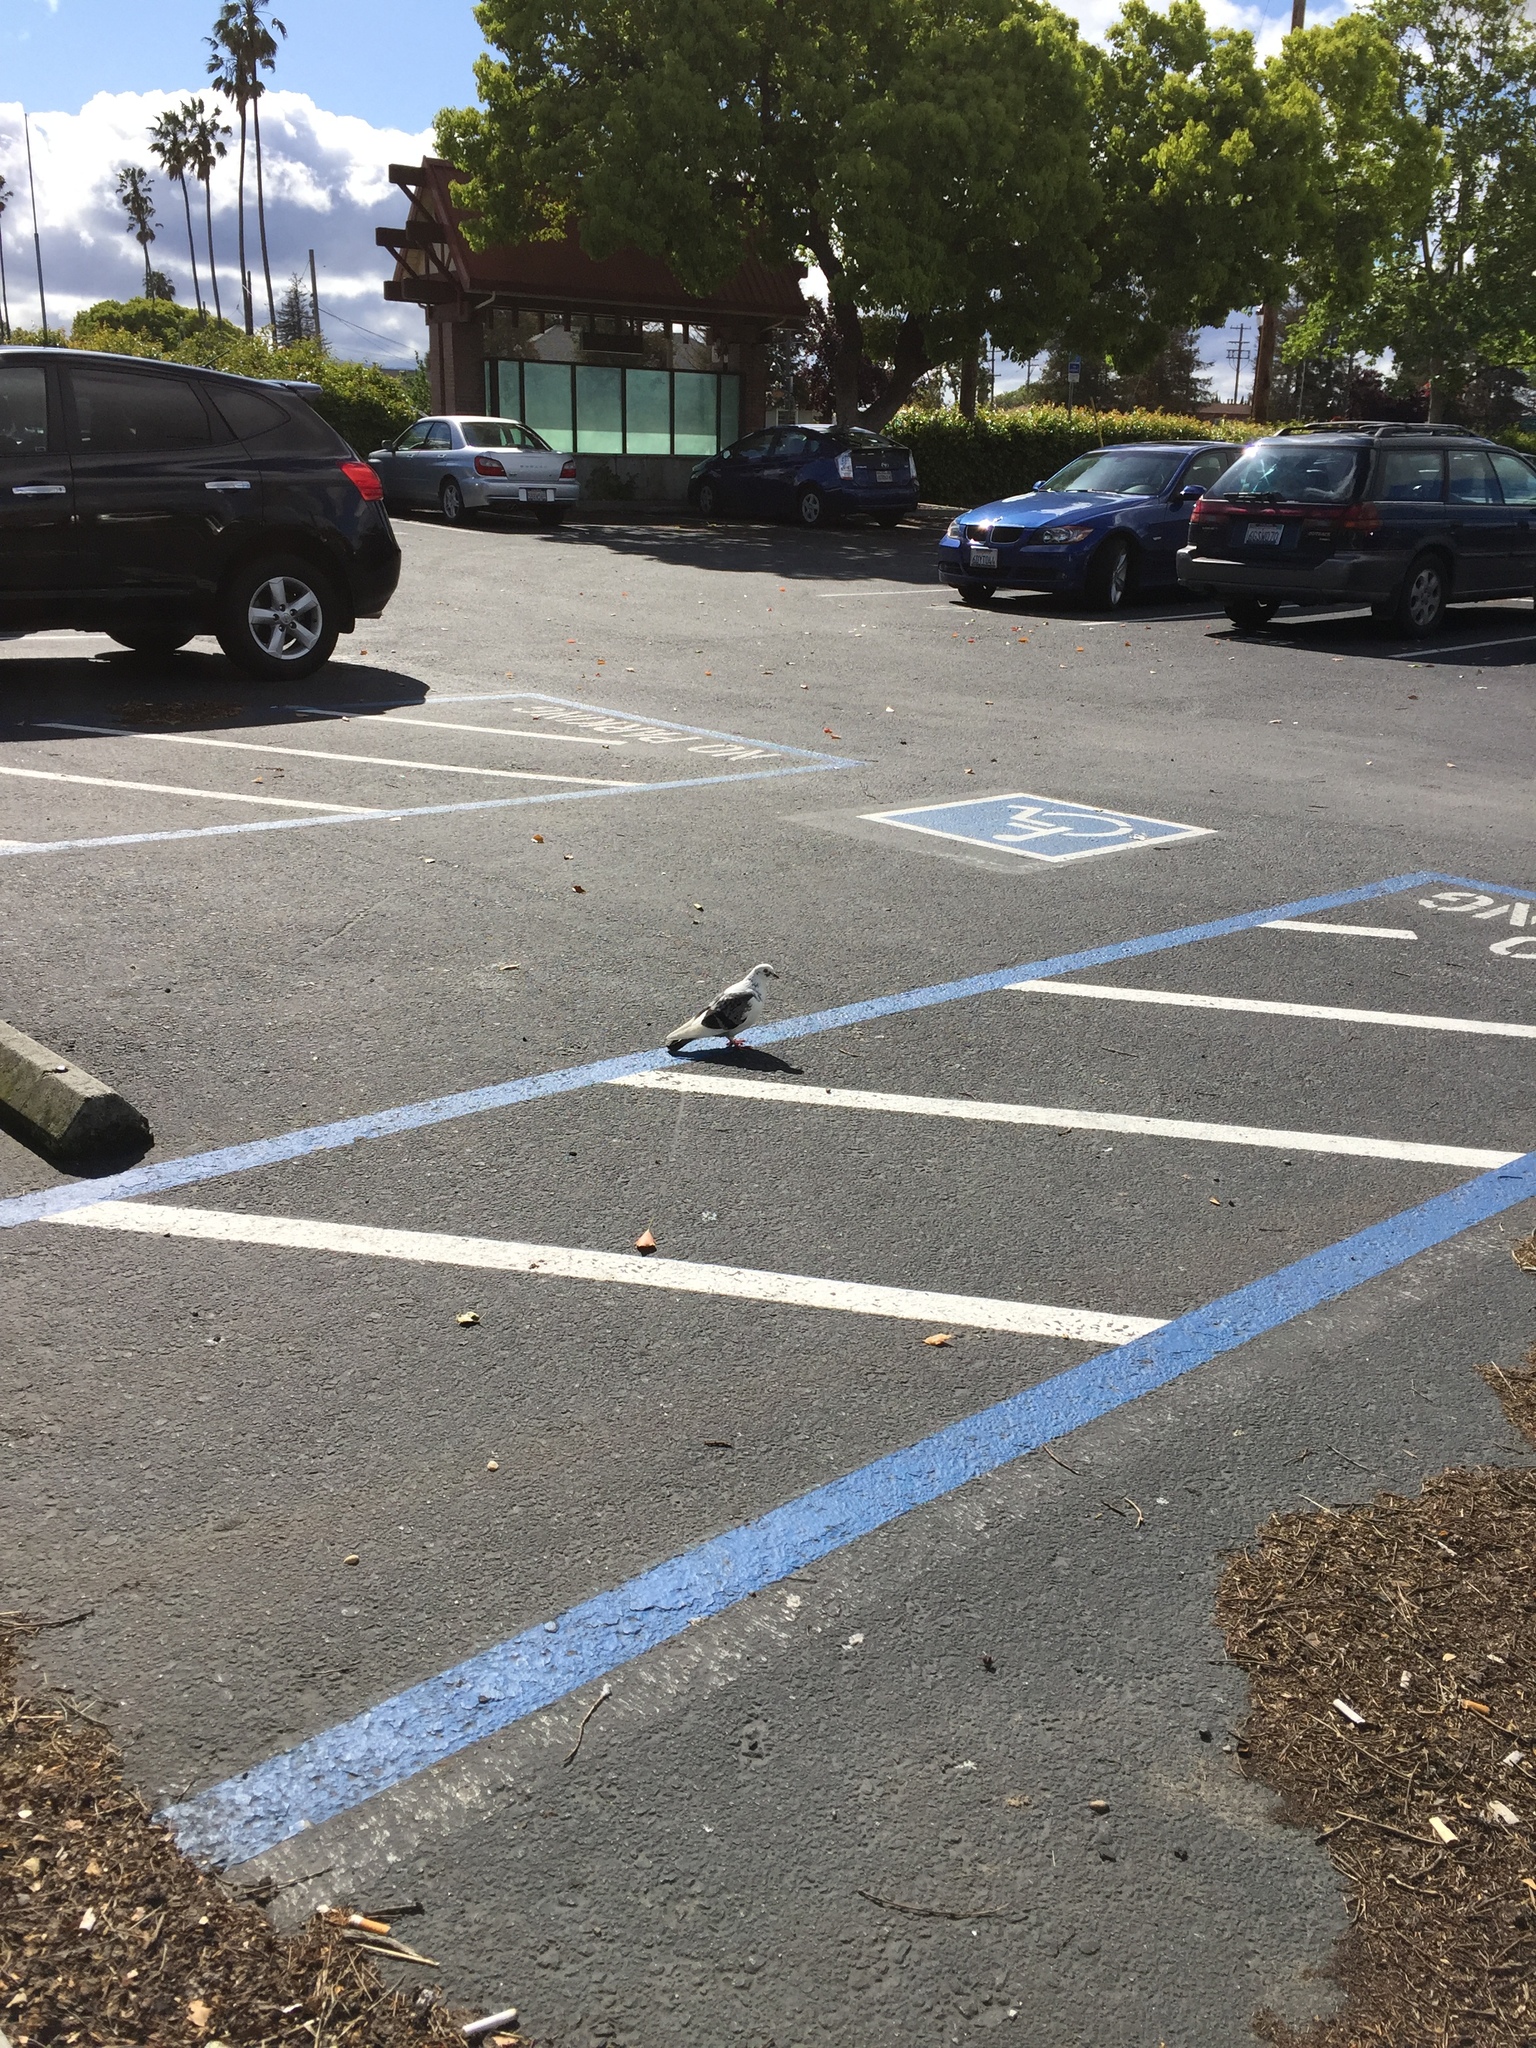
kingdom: Animalia
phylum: Chordata
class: Aves
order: Columbiformes
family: Columbidae
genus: Columba
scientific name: Columba livia
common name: Rock pigeon
